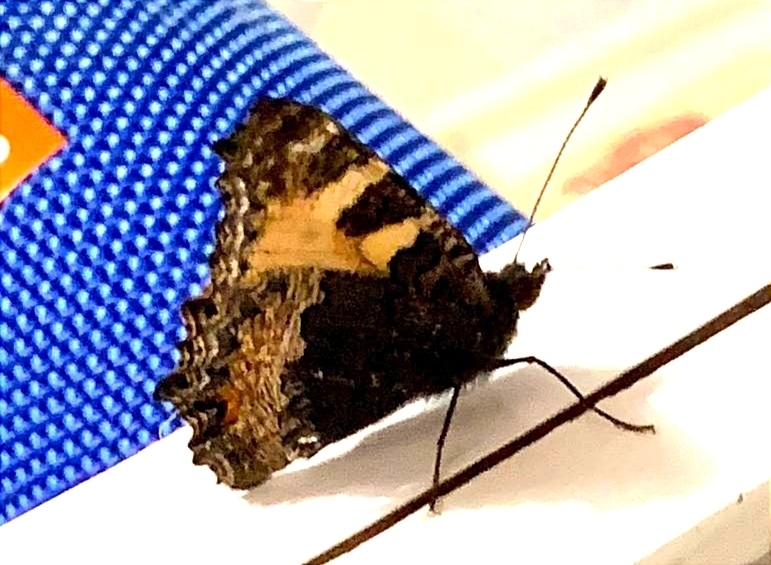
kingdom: Animalia
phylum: Arthropoda
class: Insecta
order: Lepidoptera
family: Nymphalidae
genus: Aglais
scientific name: Aglais urticae
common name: Small tortoiseshell
